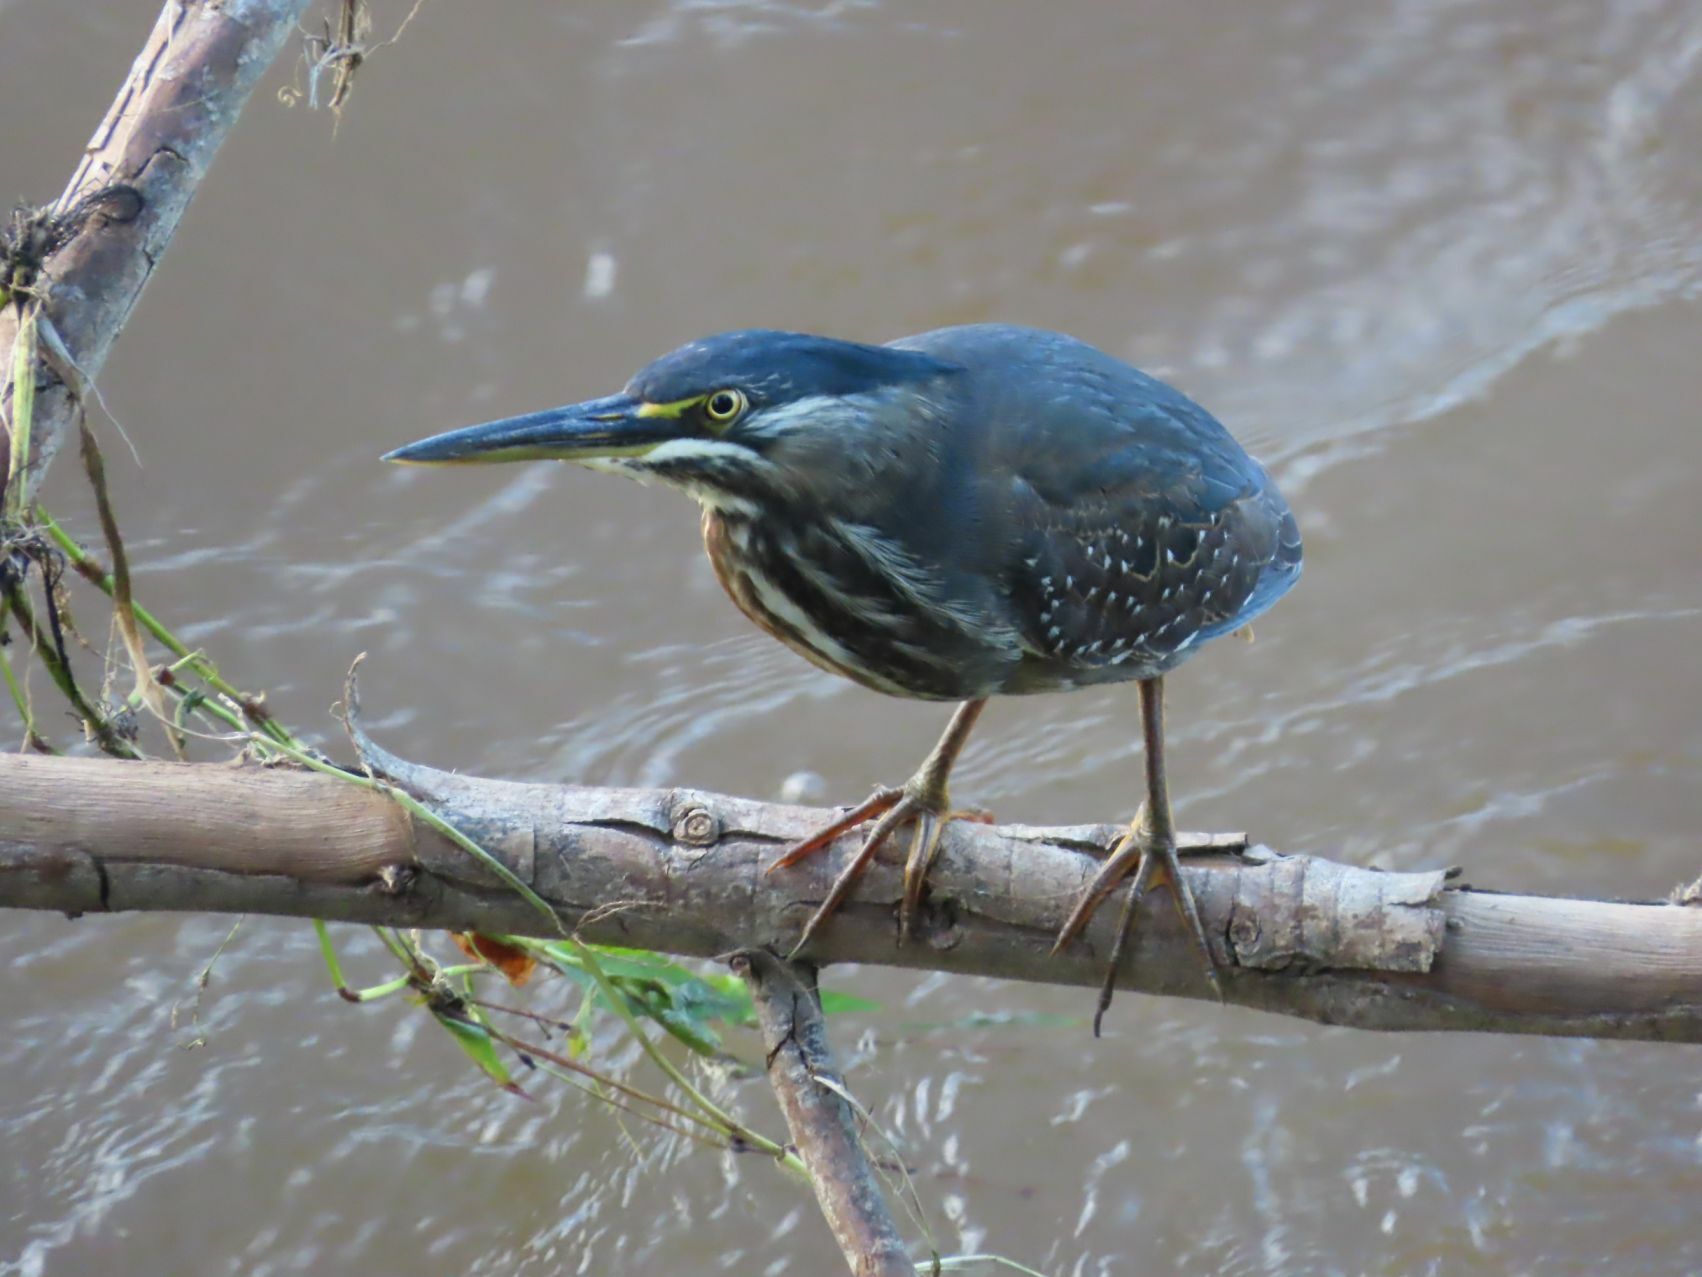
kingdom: Animalia
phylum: Chordata
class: Aves
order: Pelecaniformes
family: Ardeidae
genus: Butorides
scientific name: Butorides striata
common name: Striated heron
